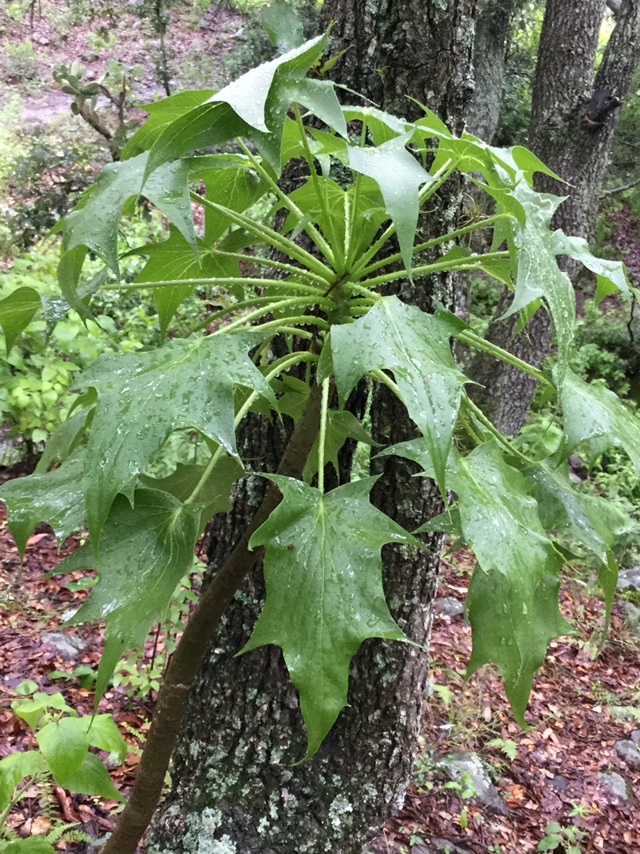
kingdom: Plantae
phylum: Tracheophyta
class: Magnoliopsida
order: Asterales
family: Asteraceae
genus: Pittocaulon
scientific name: Pittocaulon praecox
